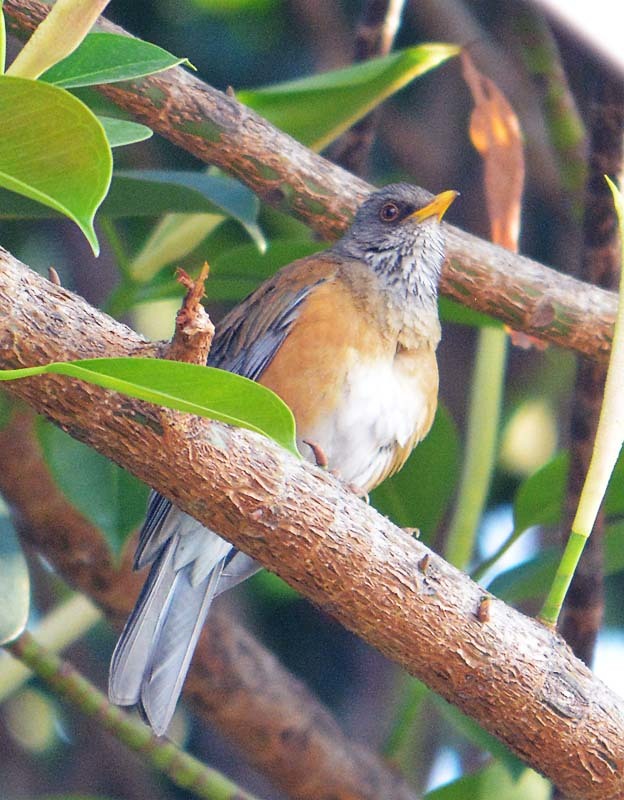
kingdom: Animalia
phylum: Chordata
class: Aves
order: Passeriformes
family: Turdidae
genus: Turdus
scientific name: Turdus rufopalliatus
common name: Rufous-backed robin
